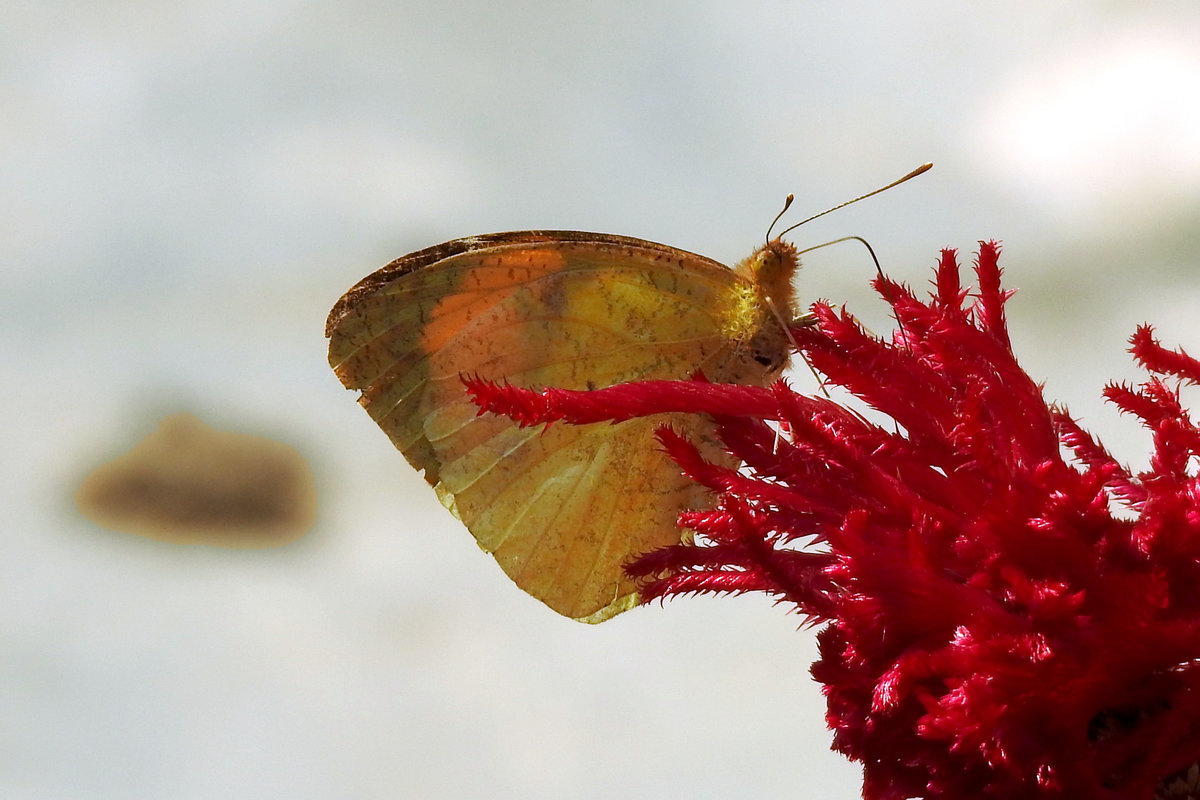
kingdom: Animalia
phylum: Arthropoda
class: Insecta
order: Lepidoptera
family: Pieridae
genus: Ixias
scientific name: Ixias pyrene
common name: Yellow orange tip
